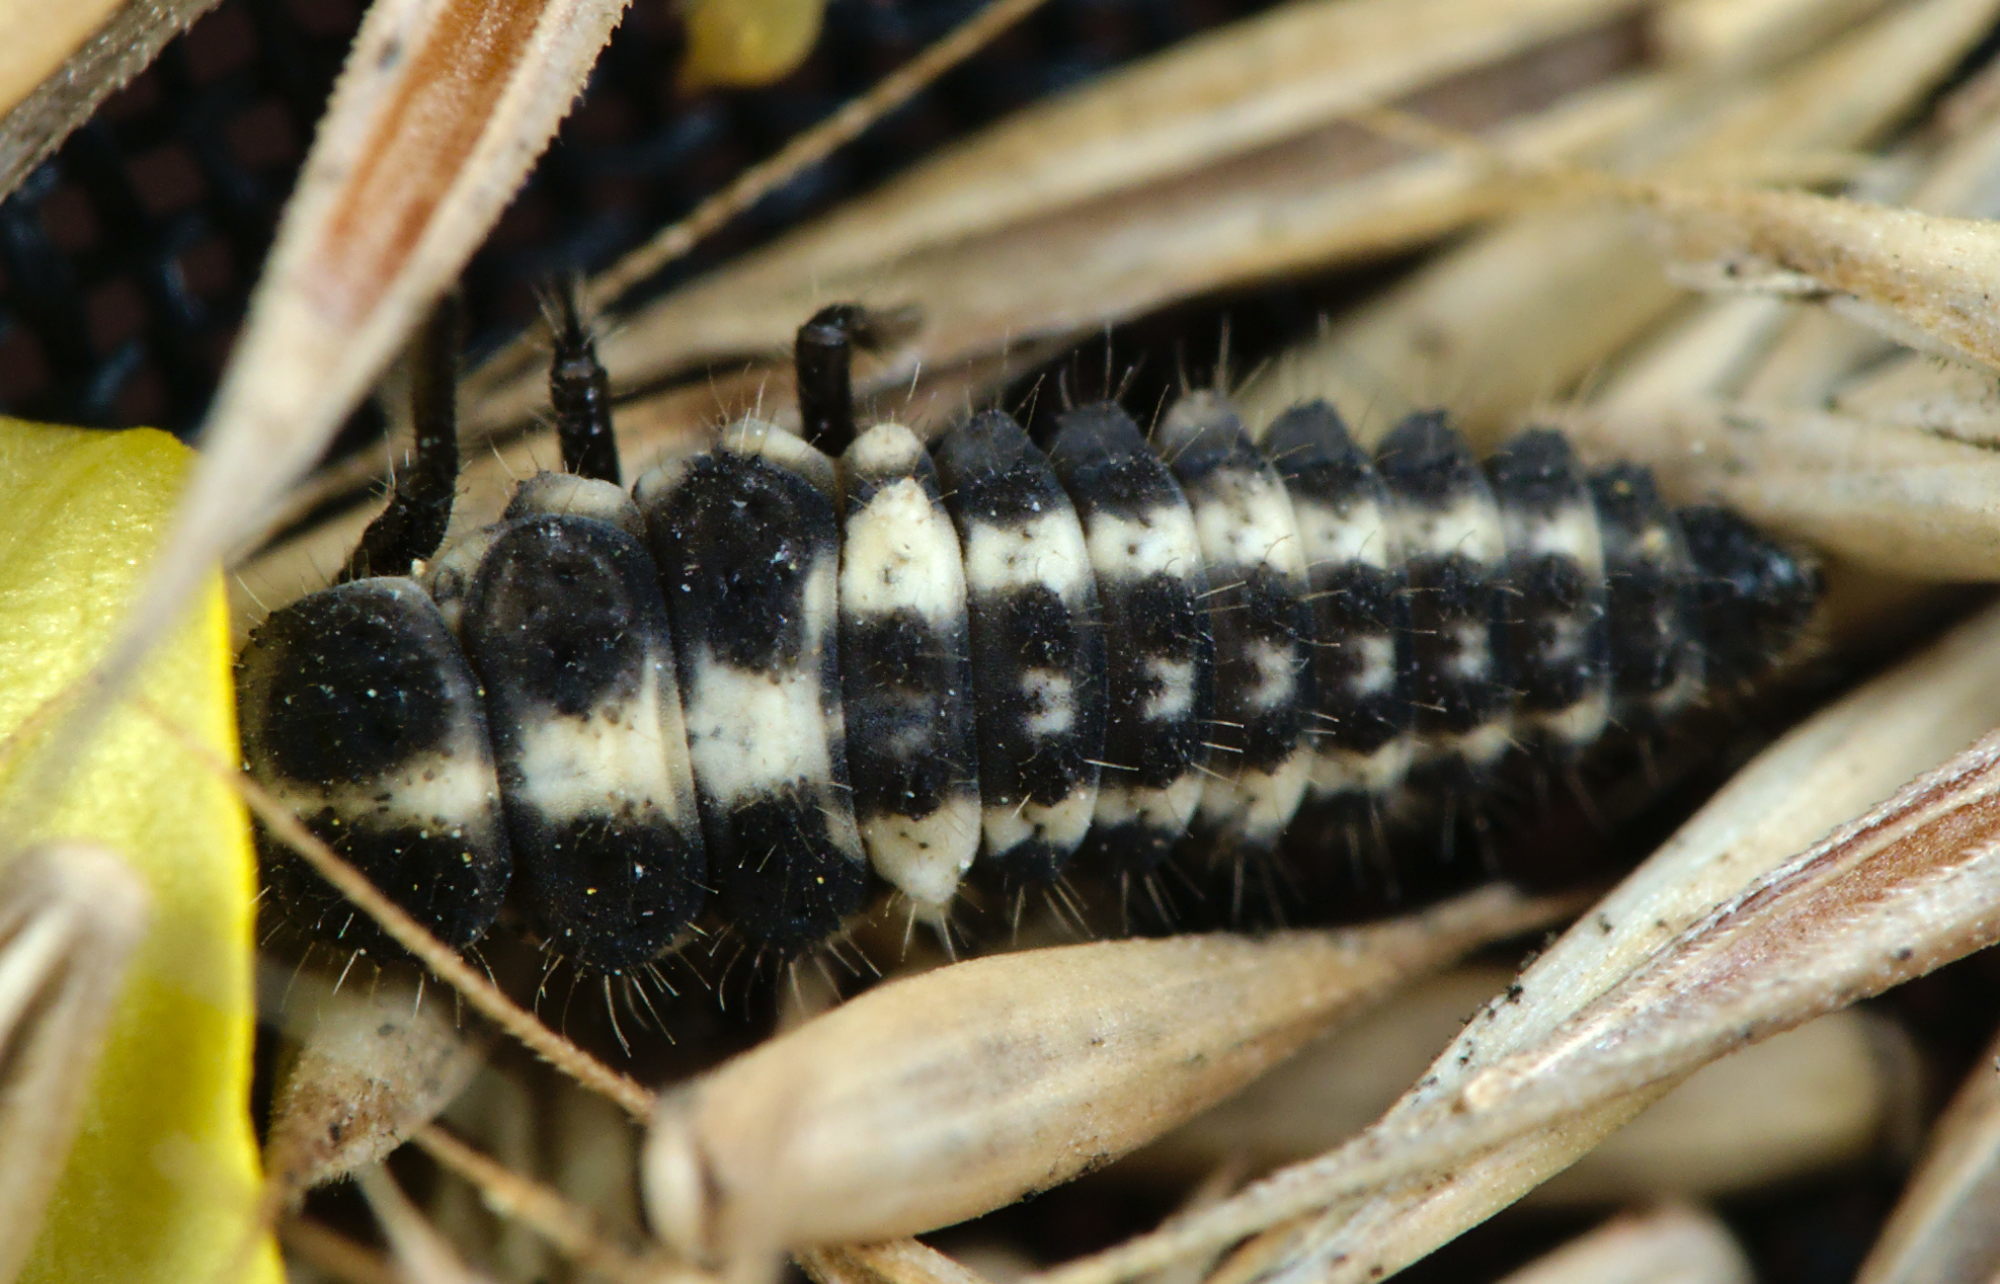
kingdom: Animalia
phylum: Arthropoda
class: Insecta
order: Coleoptera
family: Coccinellidae
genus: Coccinula
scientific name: Coccinula quatuordecimpustulata
